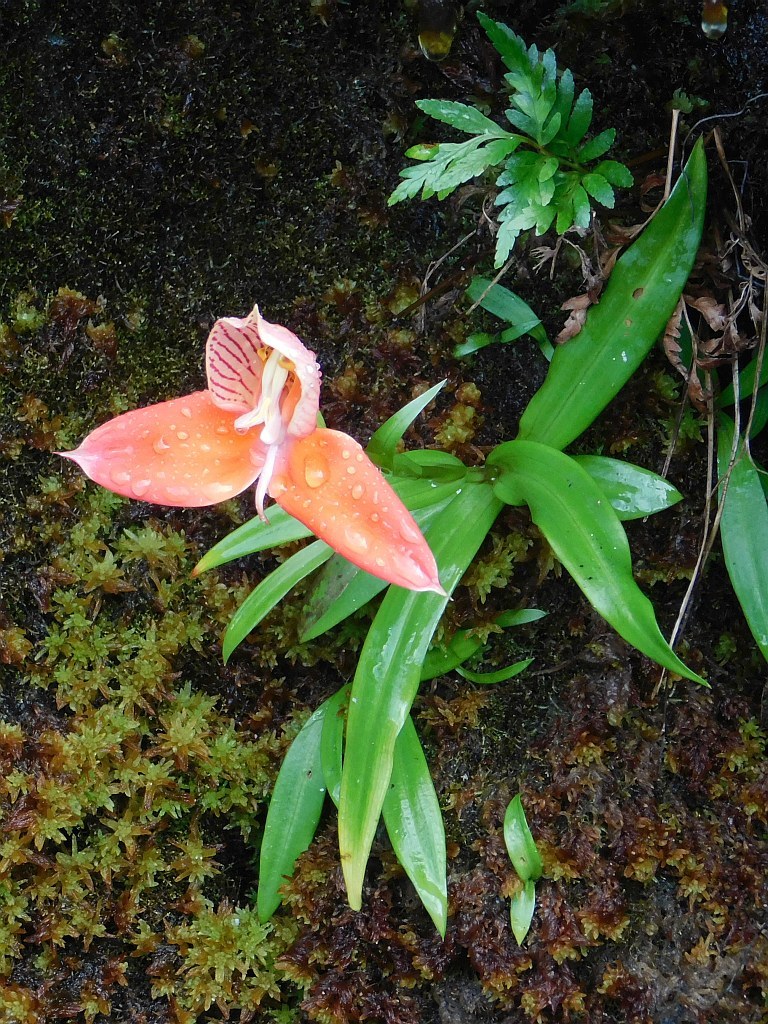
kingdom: Plantae
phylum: Tracheophyta
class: Liliopsida
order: Asparagales
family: Orchidaceae
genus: Disa
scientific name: Disa uniflora
